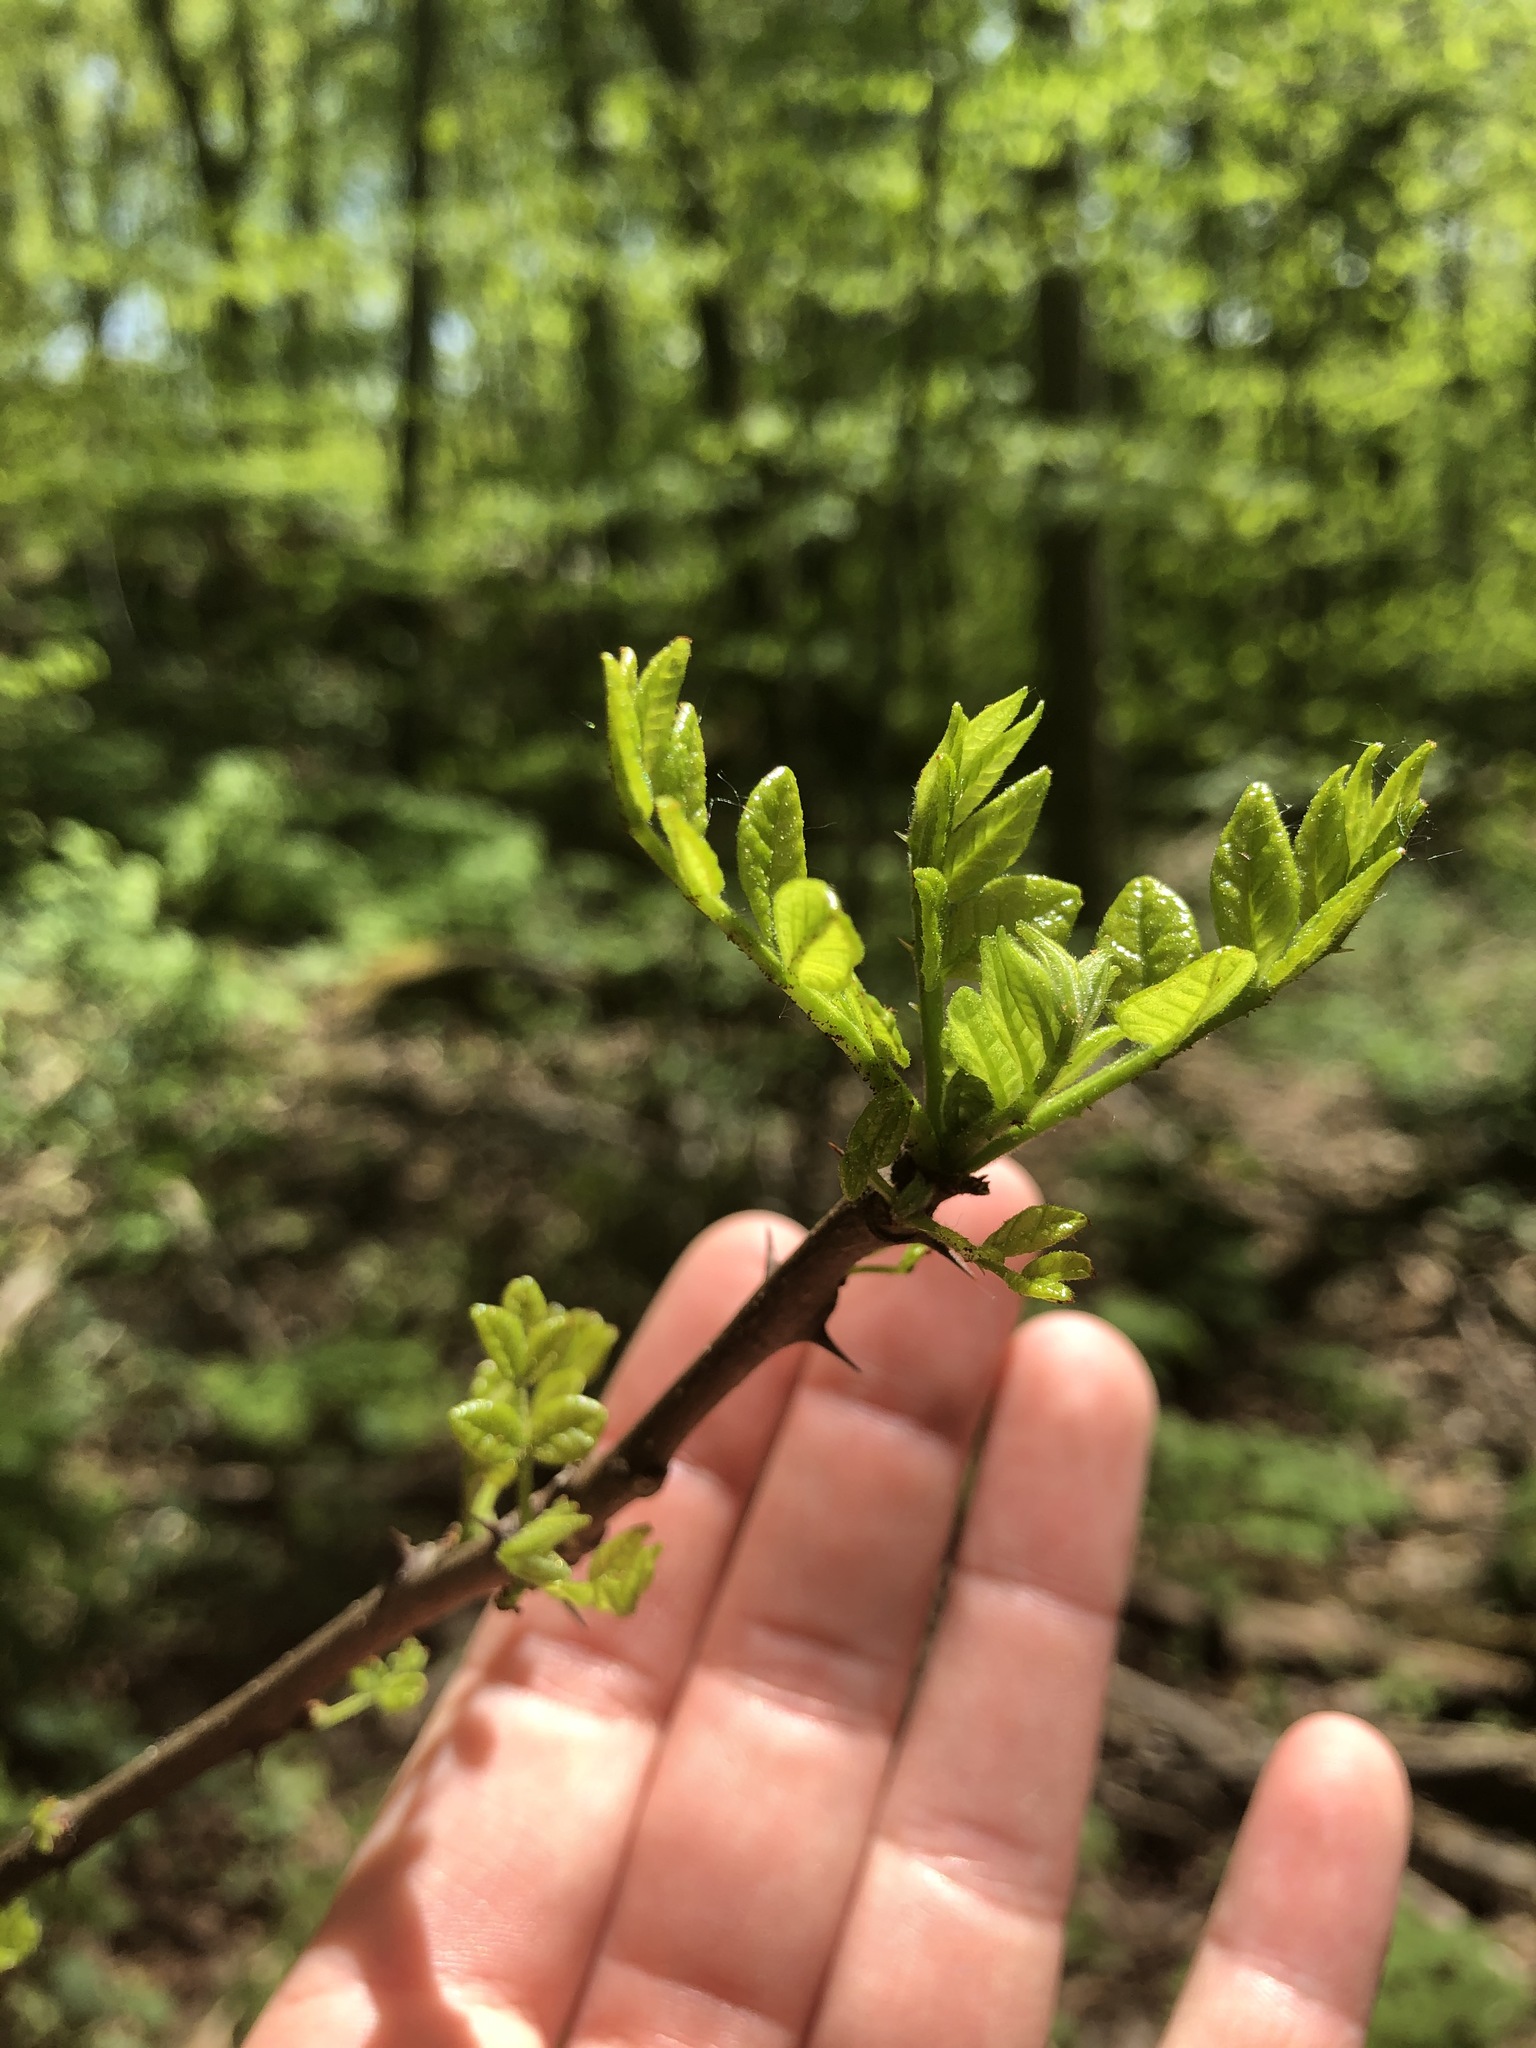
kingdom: Plantae
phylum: Tracheophyta
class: Magnoliopsida
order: Sapindales
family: Rutaceae
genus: Zanthoxylum
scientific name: Zanthoxylum americanum
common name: Northern prickly-ash
